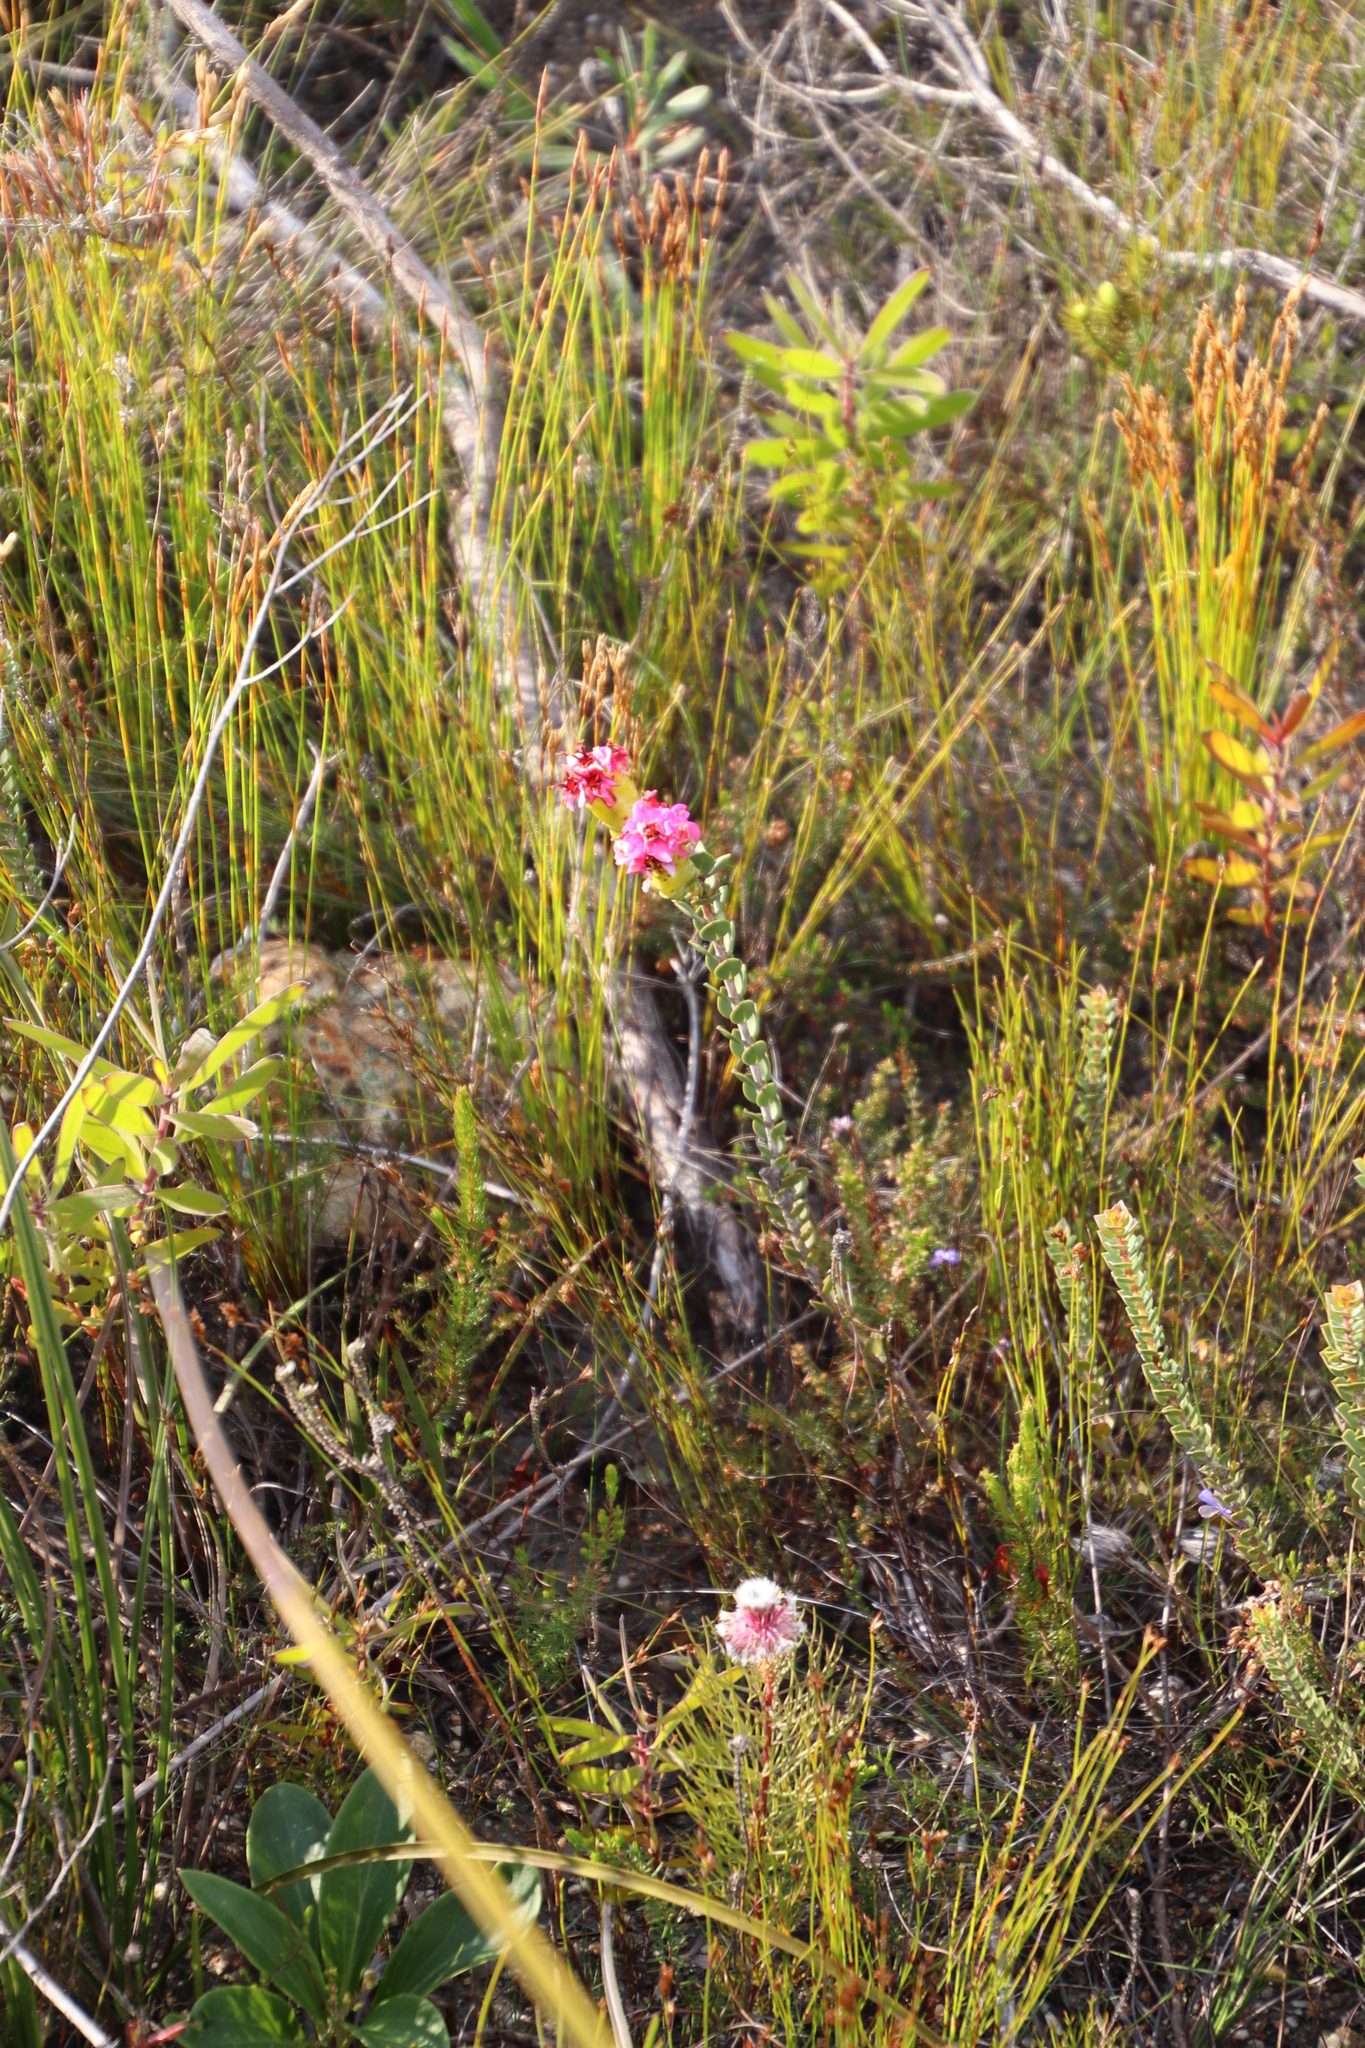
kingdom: Plantae
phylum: Tracheophyta
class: Magnoliopsida
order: Myrtales
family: Penaeaceae
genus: Saltera
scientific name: Saltera sarcocolla
